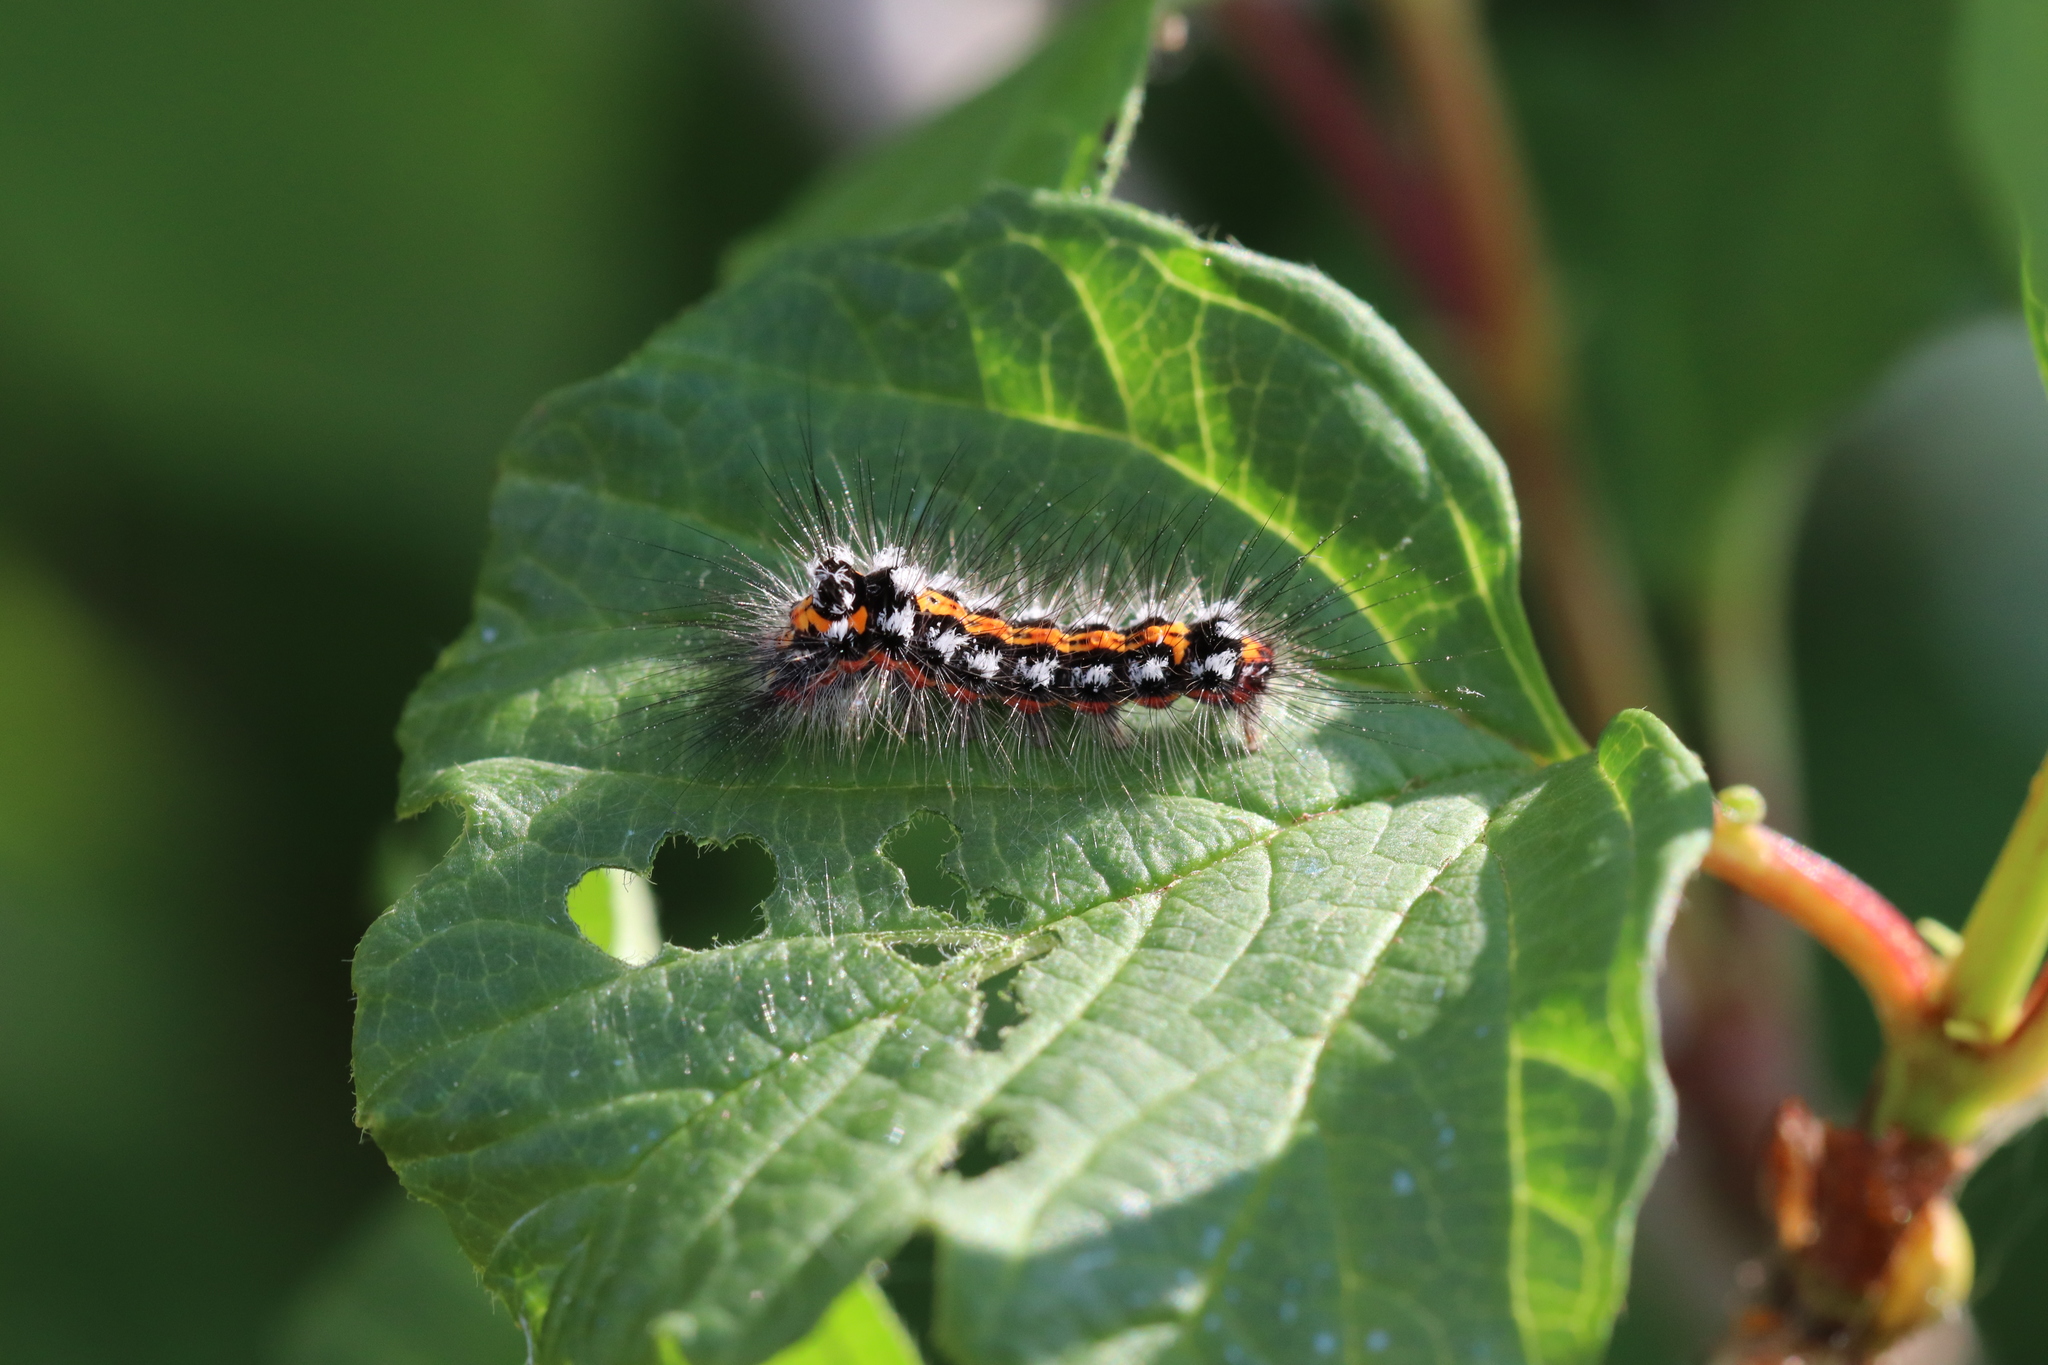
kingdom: Animalia
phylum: Arthropoda
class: Insecta
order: Lepidoptera
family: Erebidae
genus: Euproctis
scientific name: Euproctis chrysorrhoea
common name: Brown-tail
